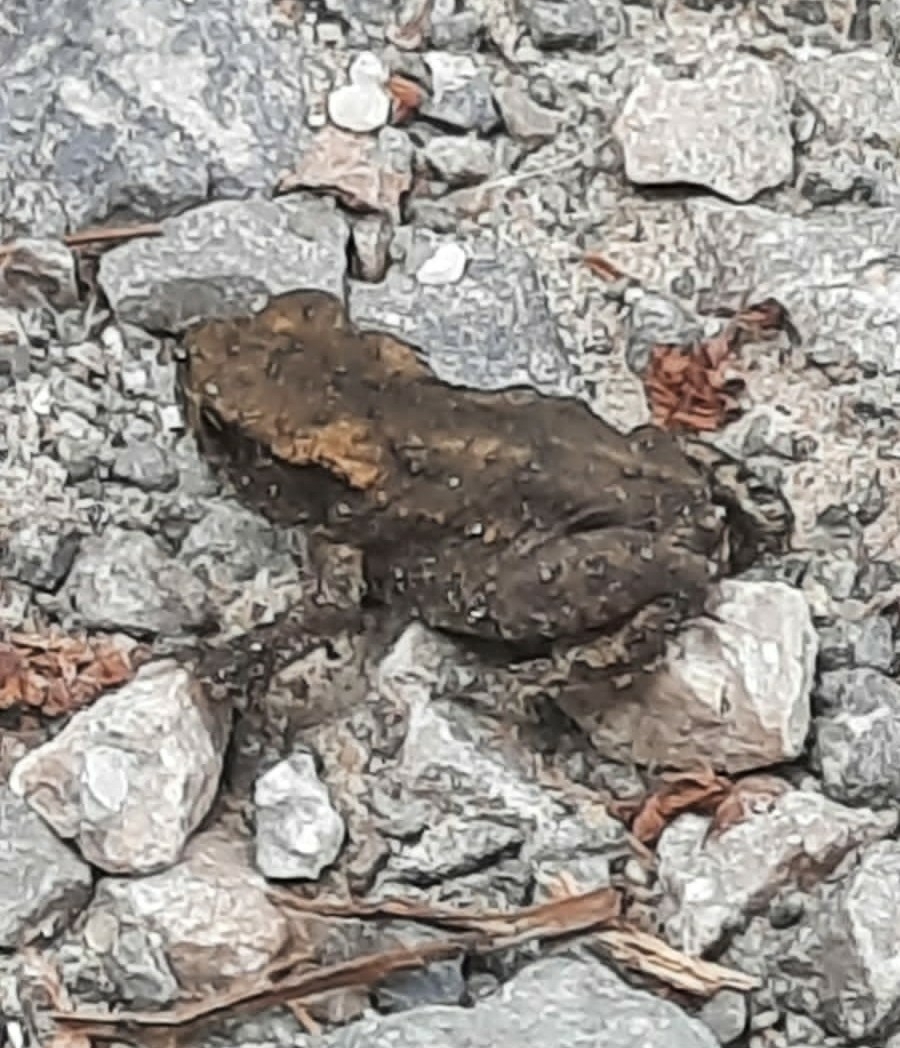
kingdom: Animalia
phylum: Chordata
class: Amphibia
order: Anura
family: Bufonidae
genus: Bufo
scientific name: Bufo bufo
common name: Common toad
